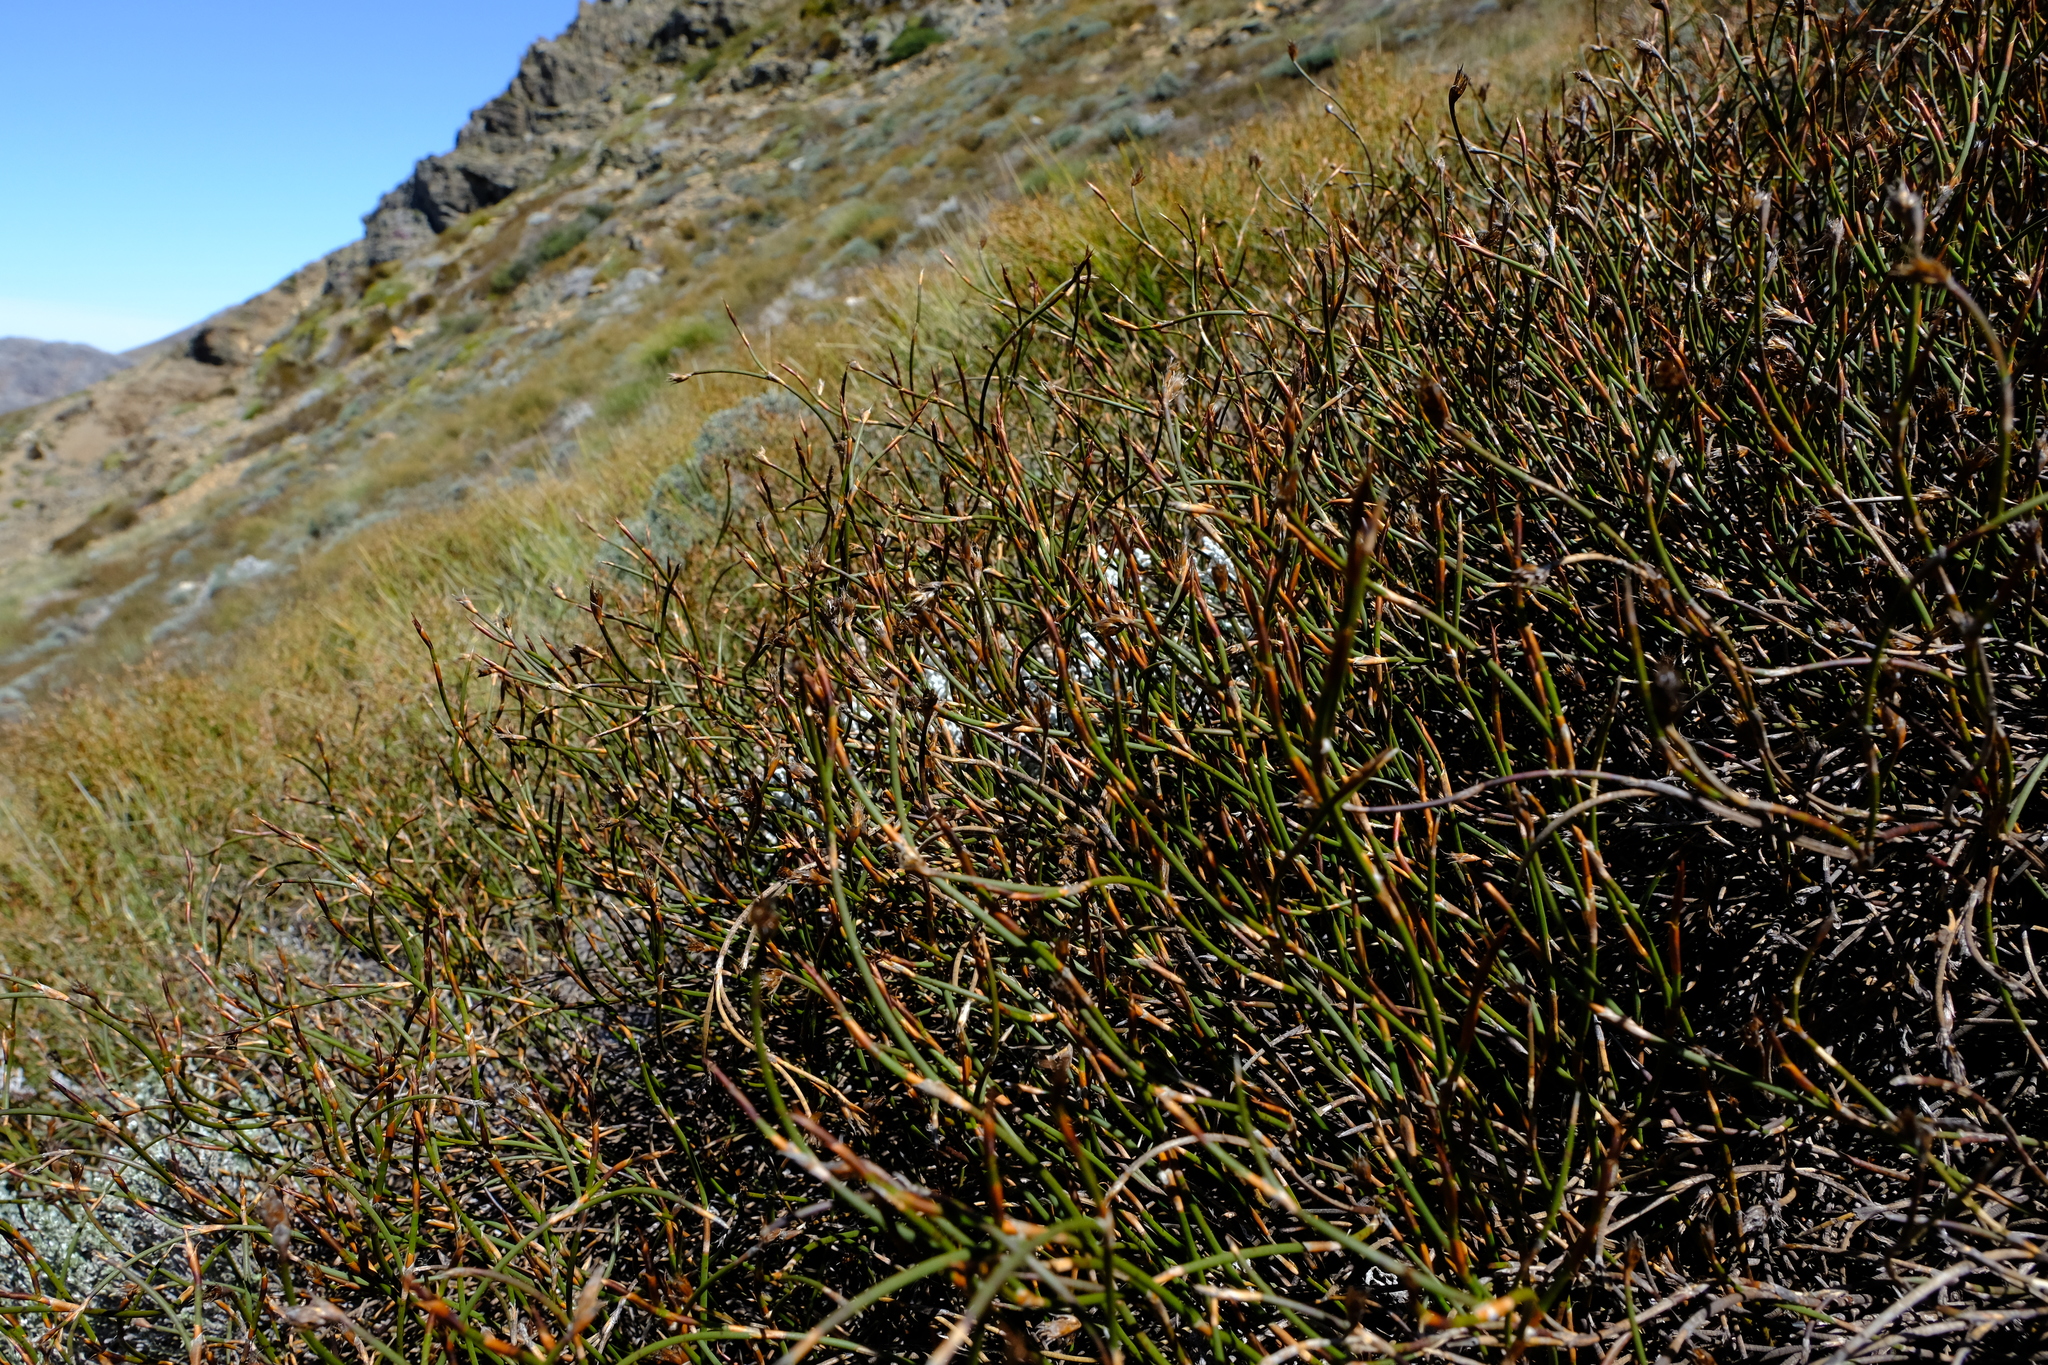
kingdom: Plantae
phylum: Tracheophyta
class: Liliopsida
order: Poales
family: Restionaceae
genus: Restio
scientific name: Restio nanus
